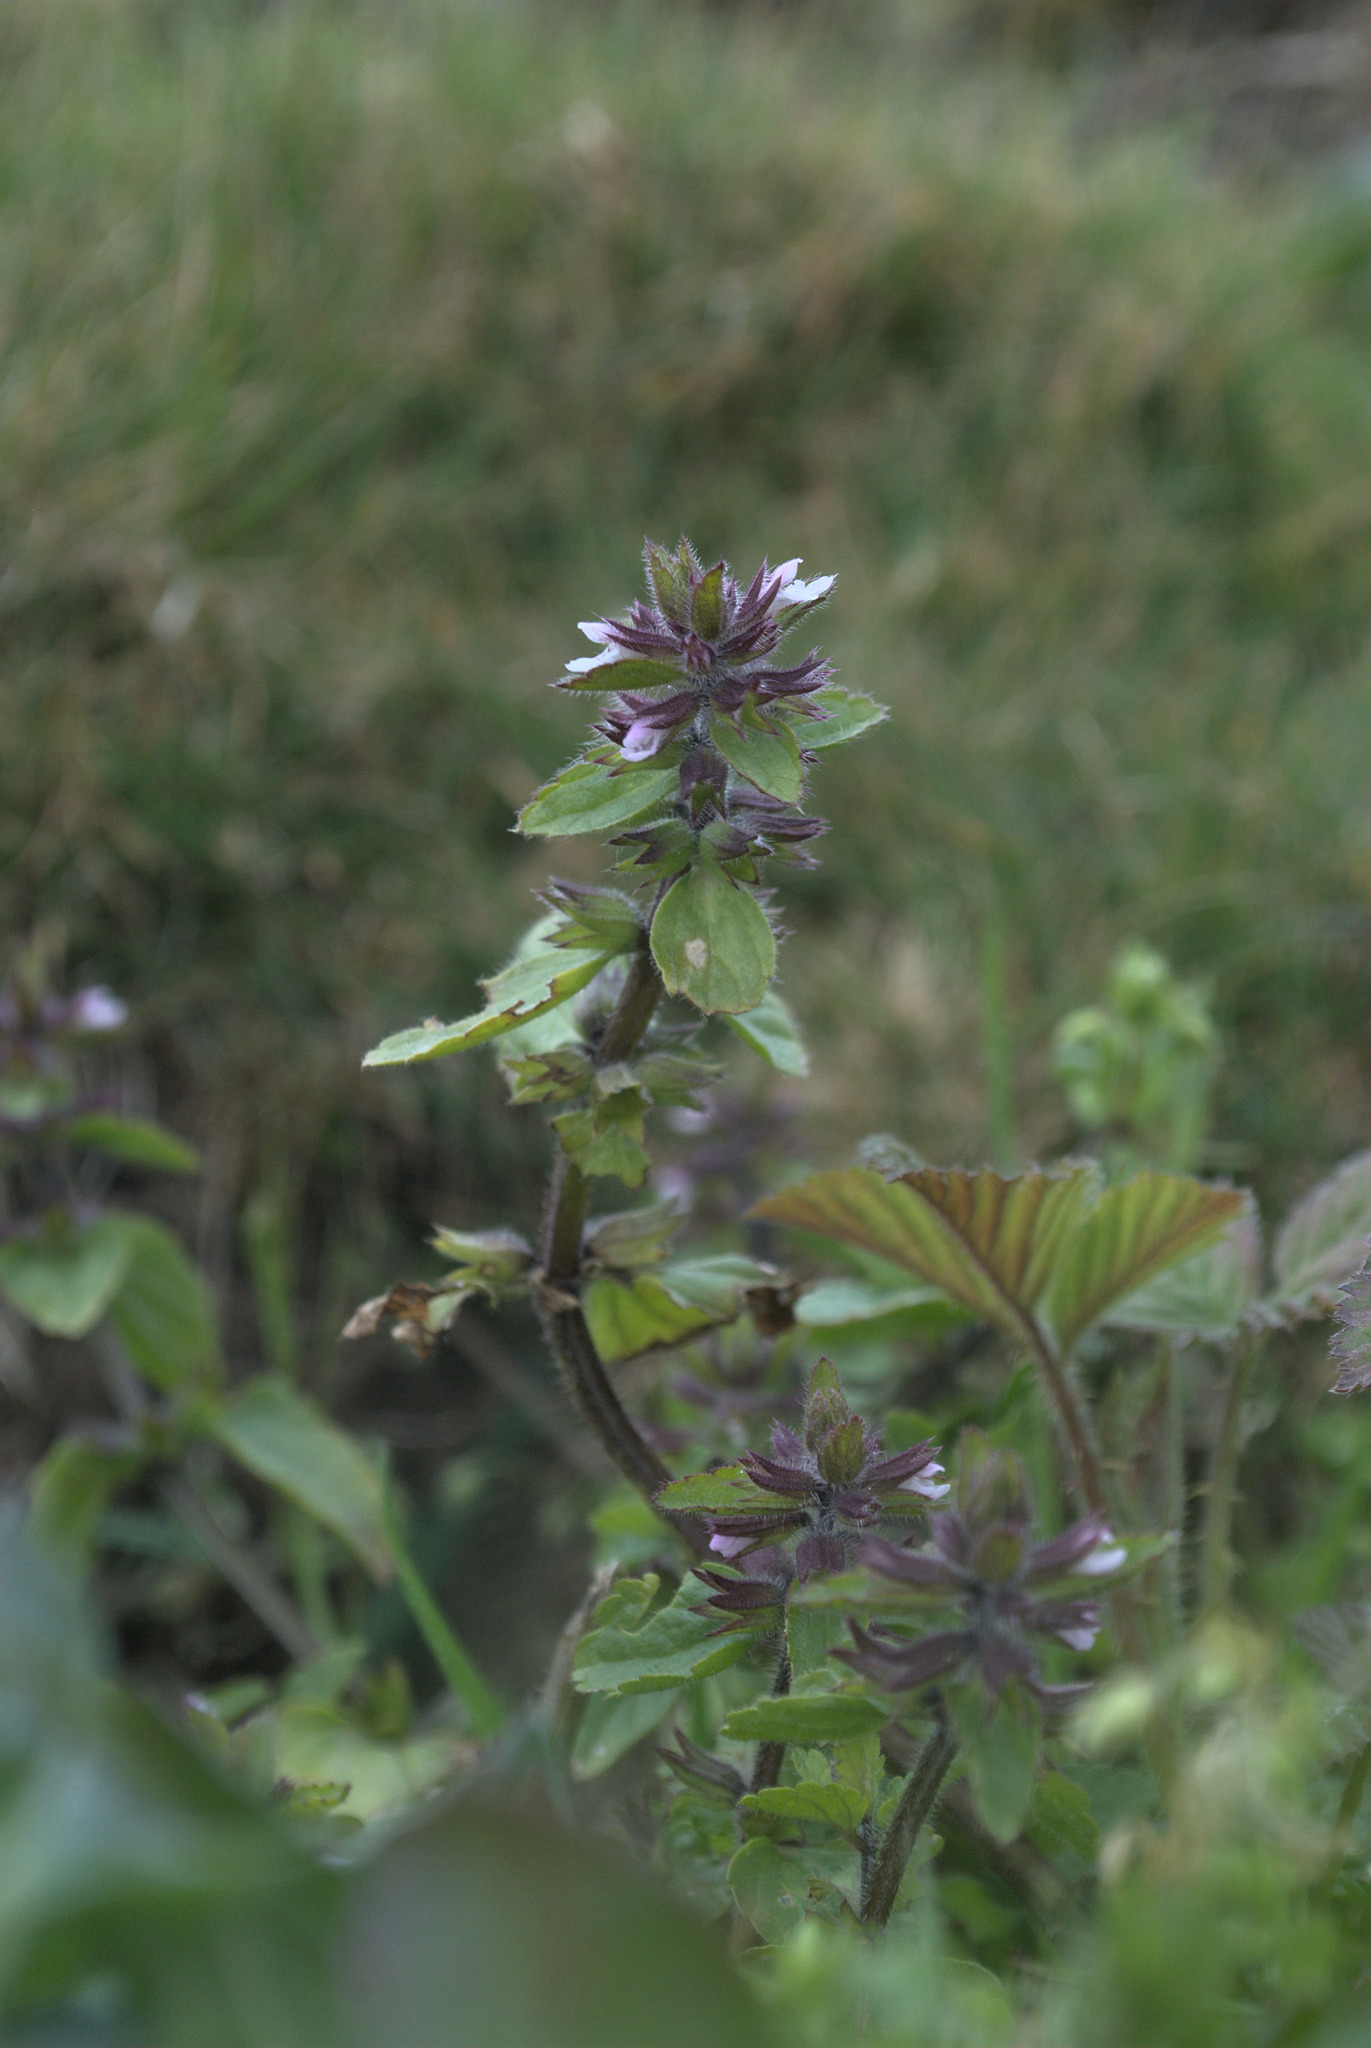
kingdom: Plantae
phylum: Tracheophyta
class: Magnoliopsida
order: Lamiales
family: Lamiaceae
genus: Stachys
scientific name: Stachys arvensis
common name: Field woundwort
